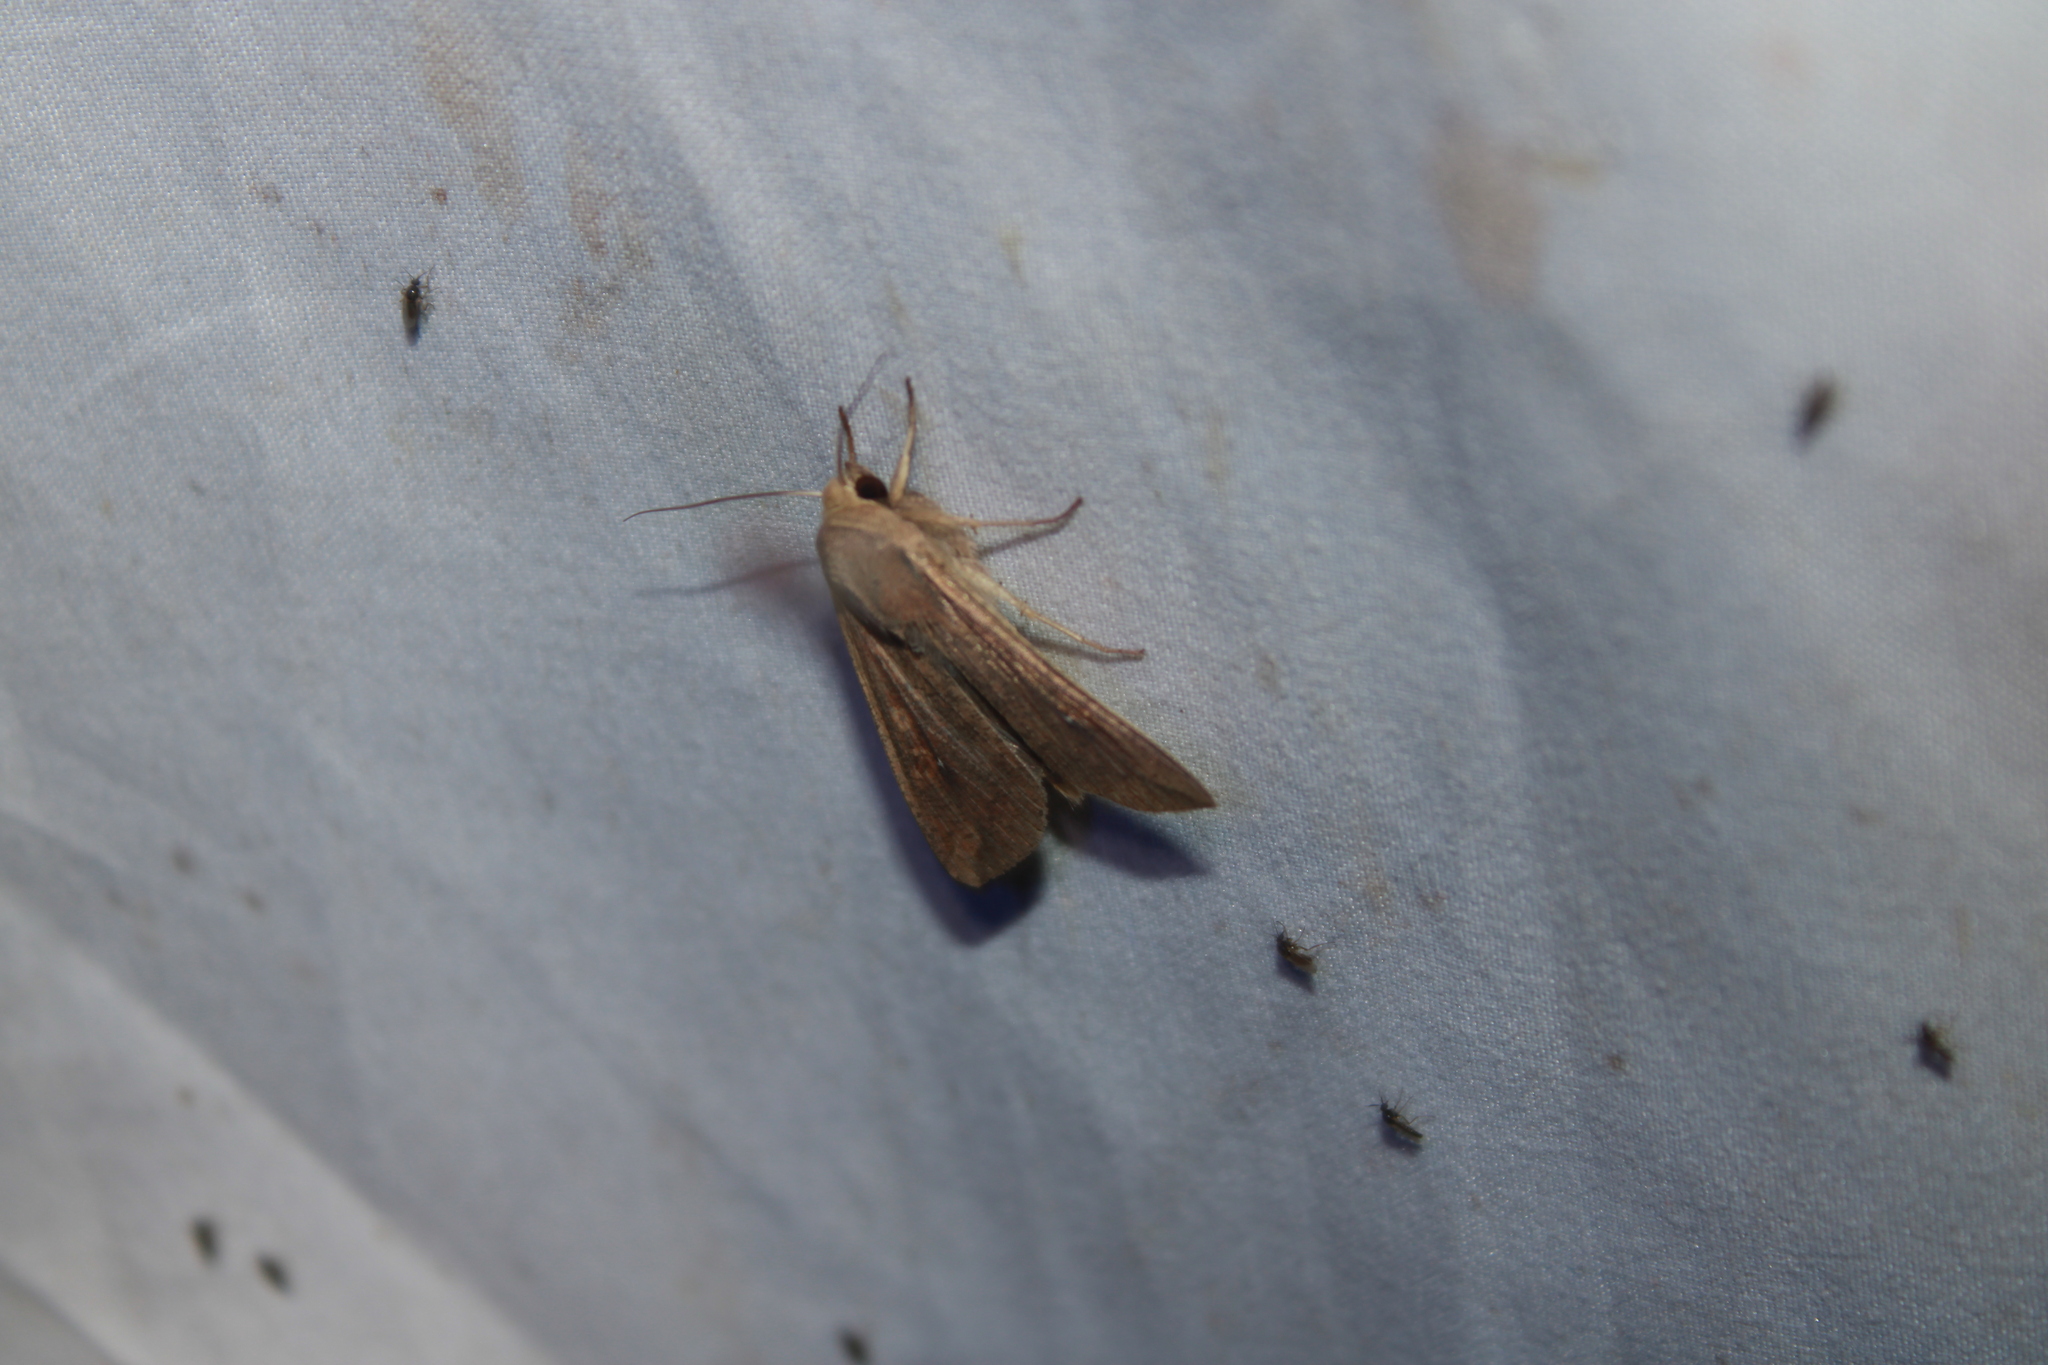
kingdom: Animalia
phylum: Arthropoda
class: Insecta
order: Lepidoptera
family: Noctuidae
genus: Mythimna
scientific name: Mythimna unipuncta
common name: White-speck
